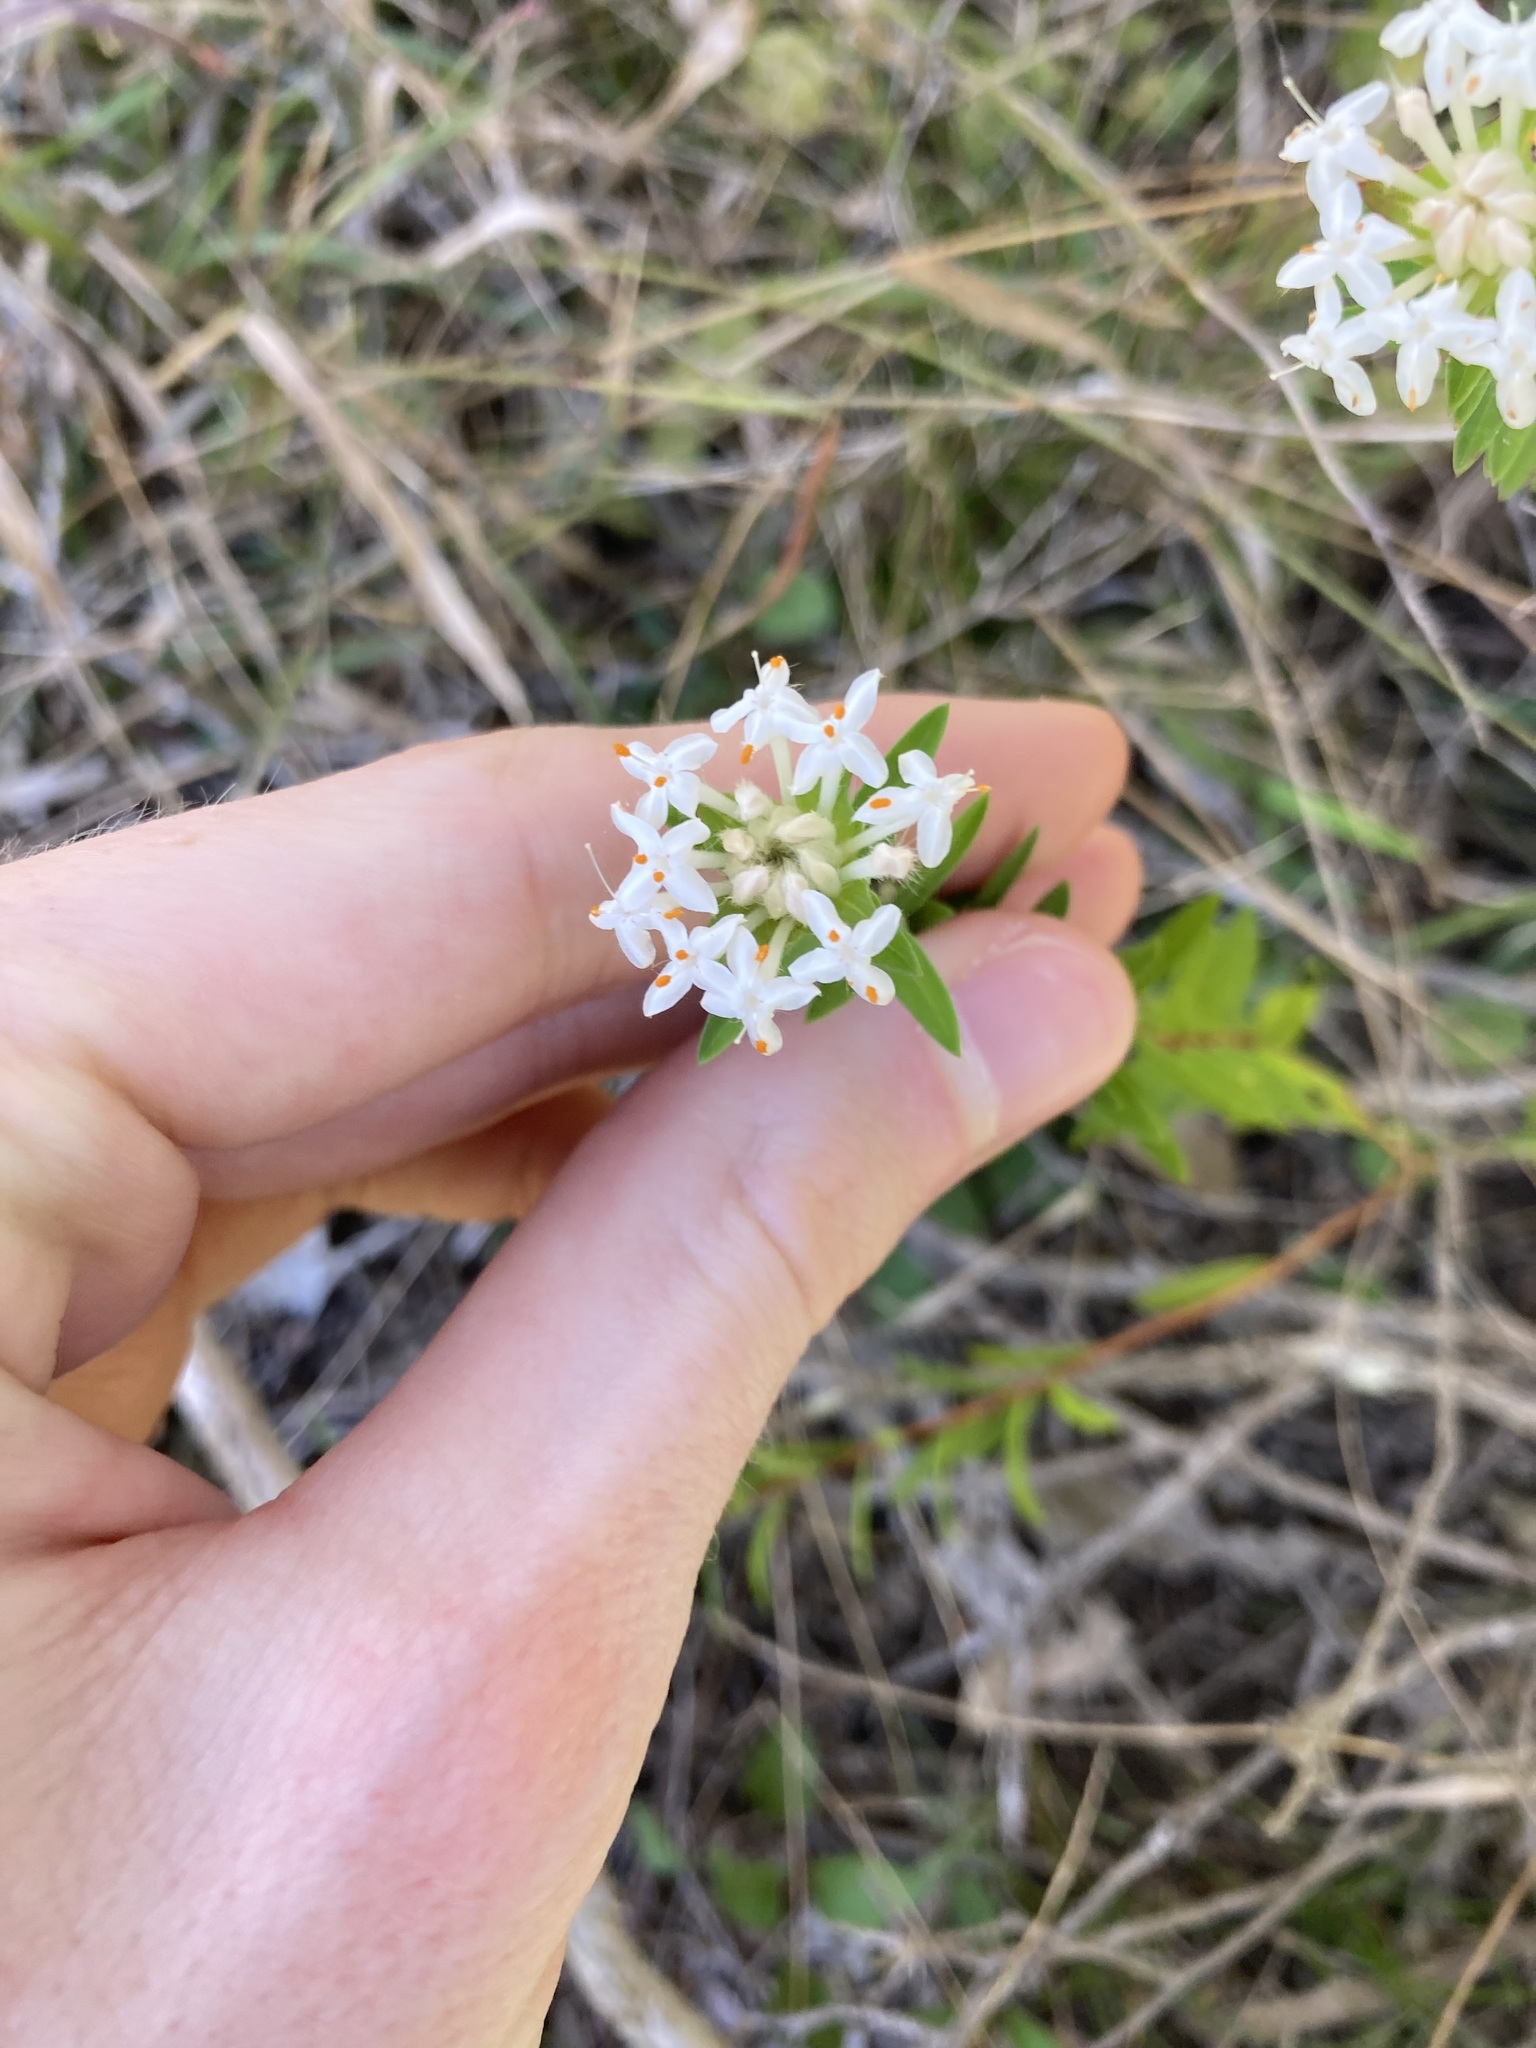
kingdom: Plantae
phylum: Tracheophyta
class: Magnoliopsida
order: Malvales
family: Thymelaeaceae
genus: Pimelea
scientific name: Pimelea linifolia
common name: Queen-of-the-bush
